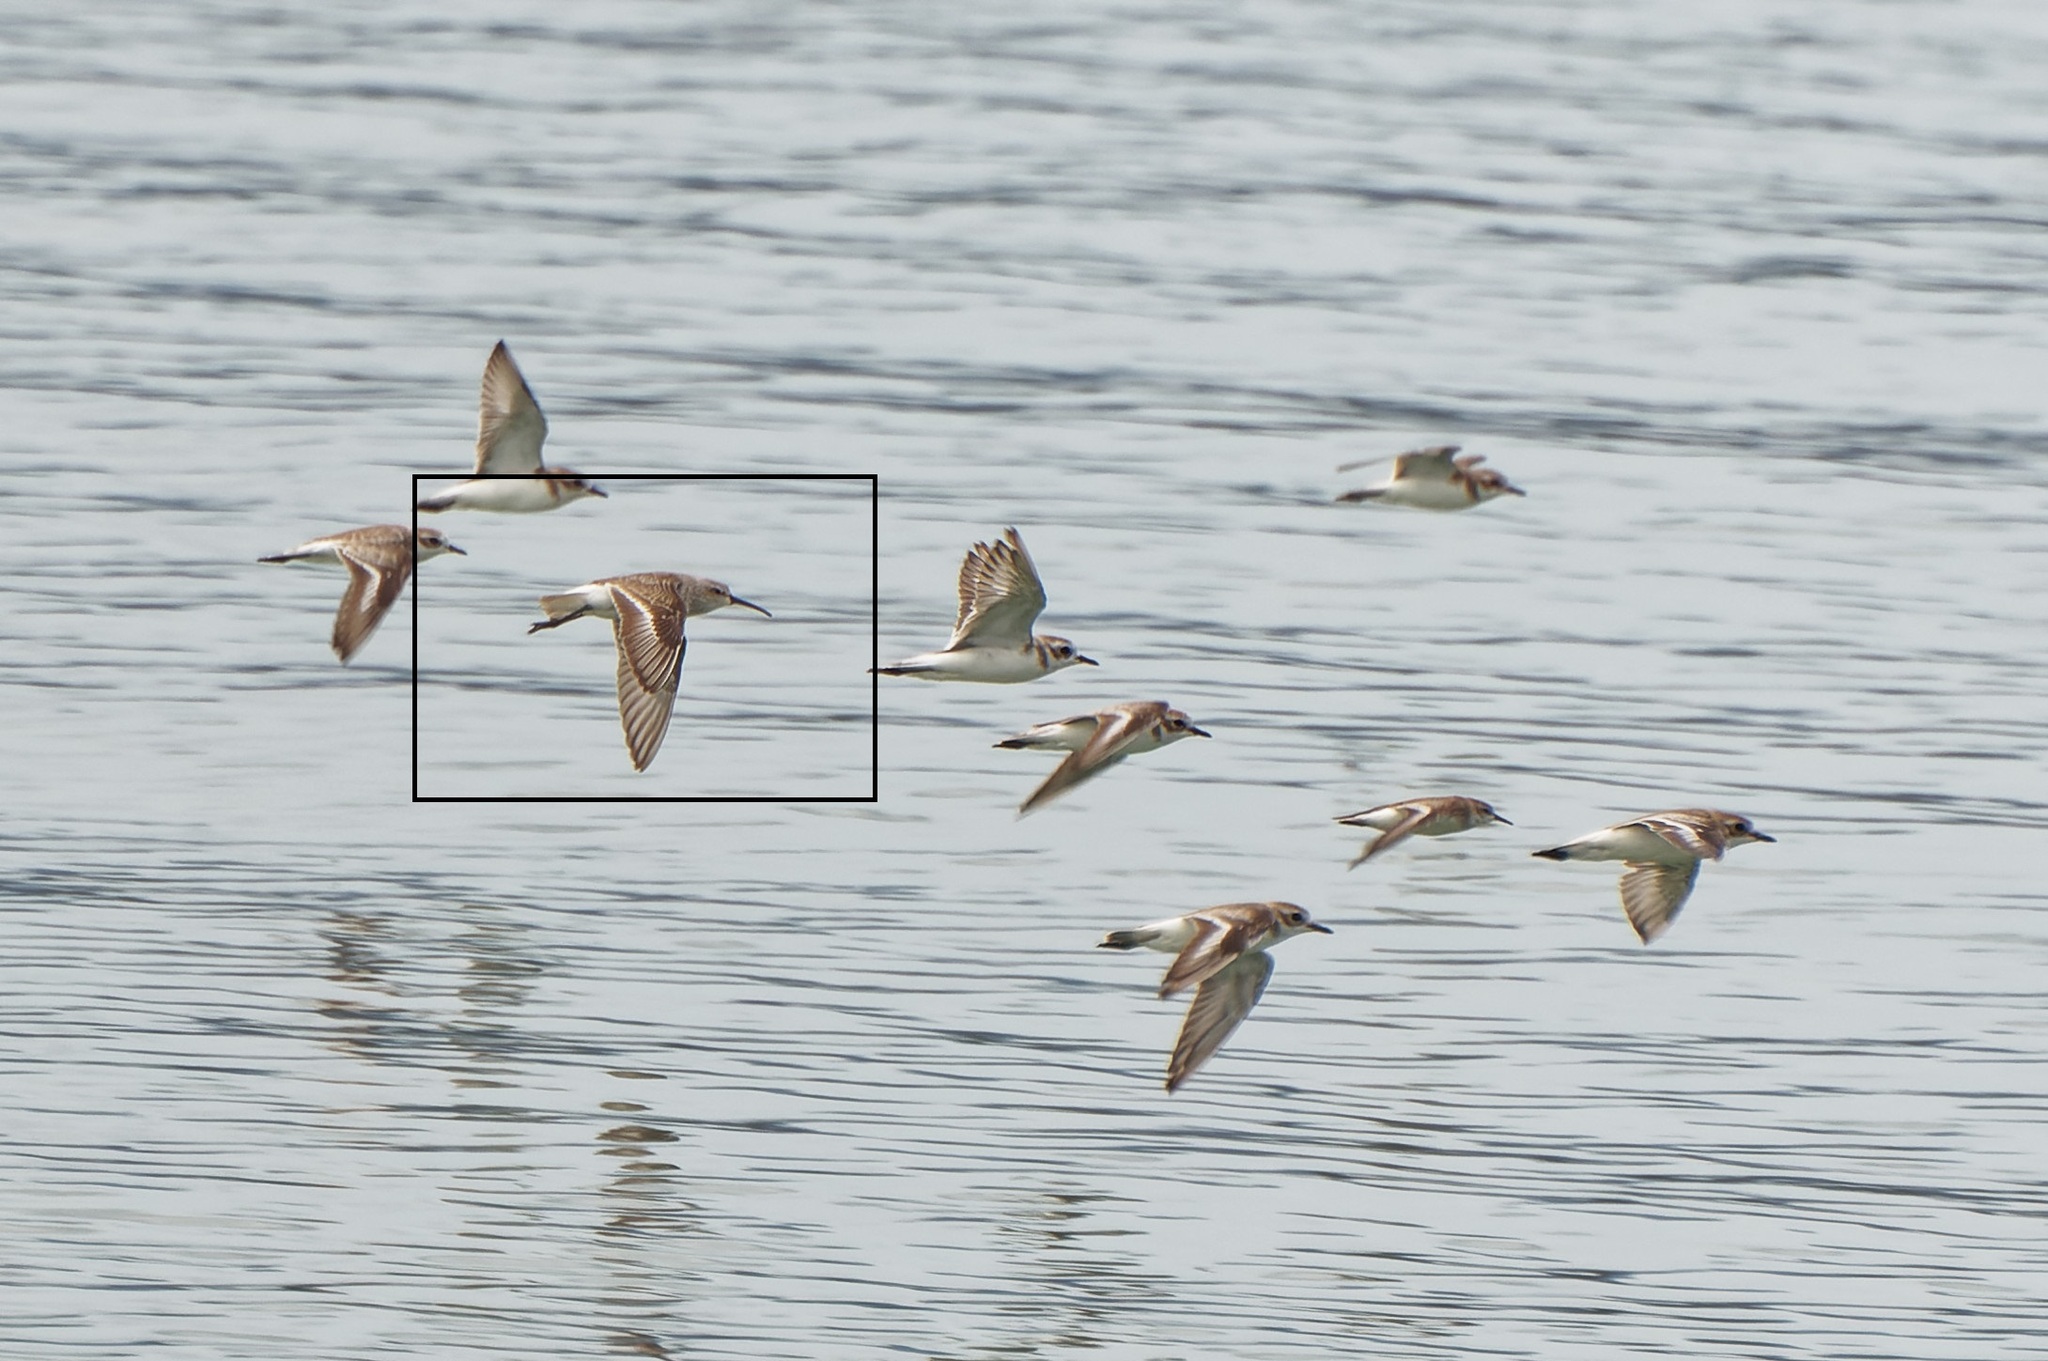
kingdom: Animalia
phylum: Chordata
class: Aves
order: Charadriiformes
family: Scolopacidae
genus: Calidris
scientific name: Calidris ferruginea
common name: Curlew sandpiper
